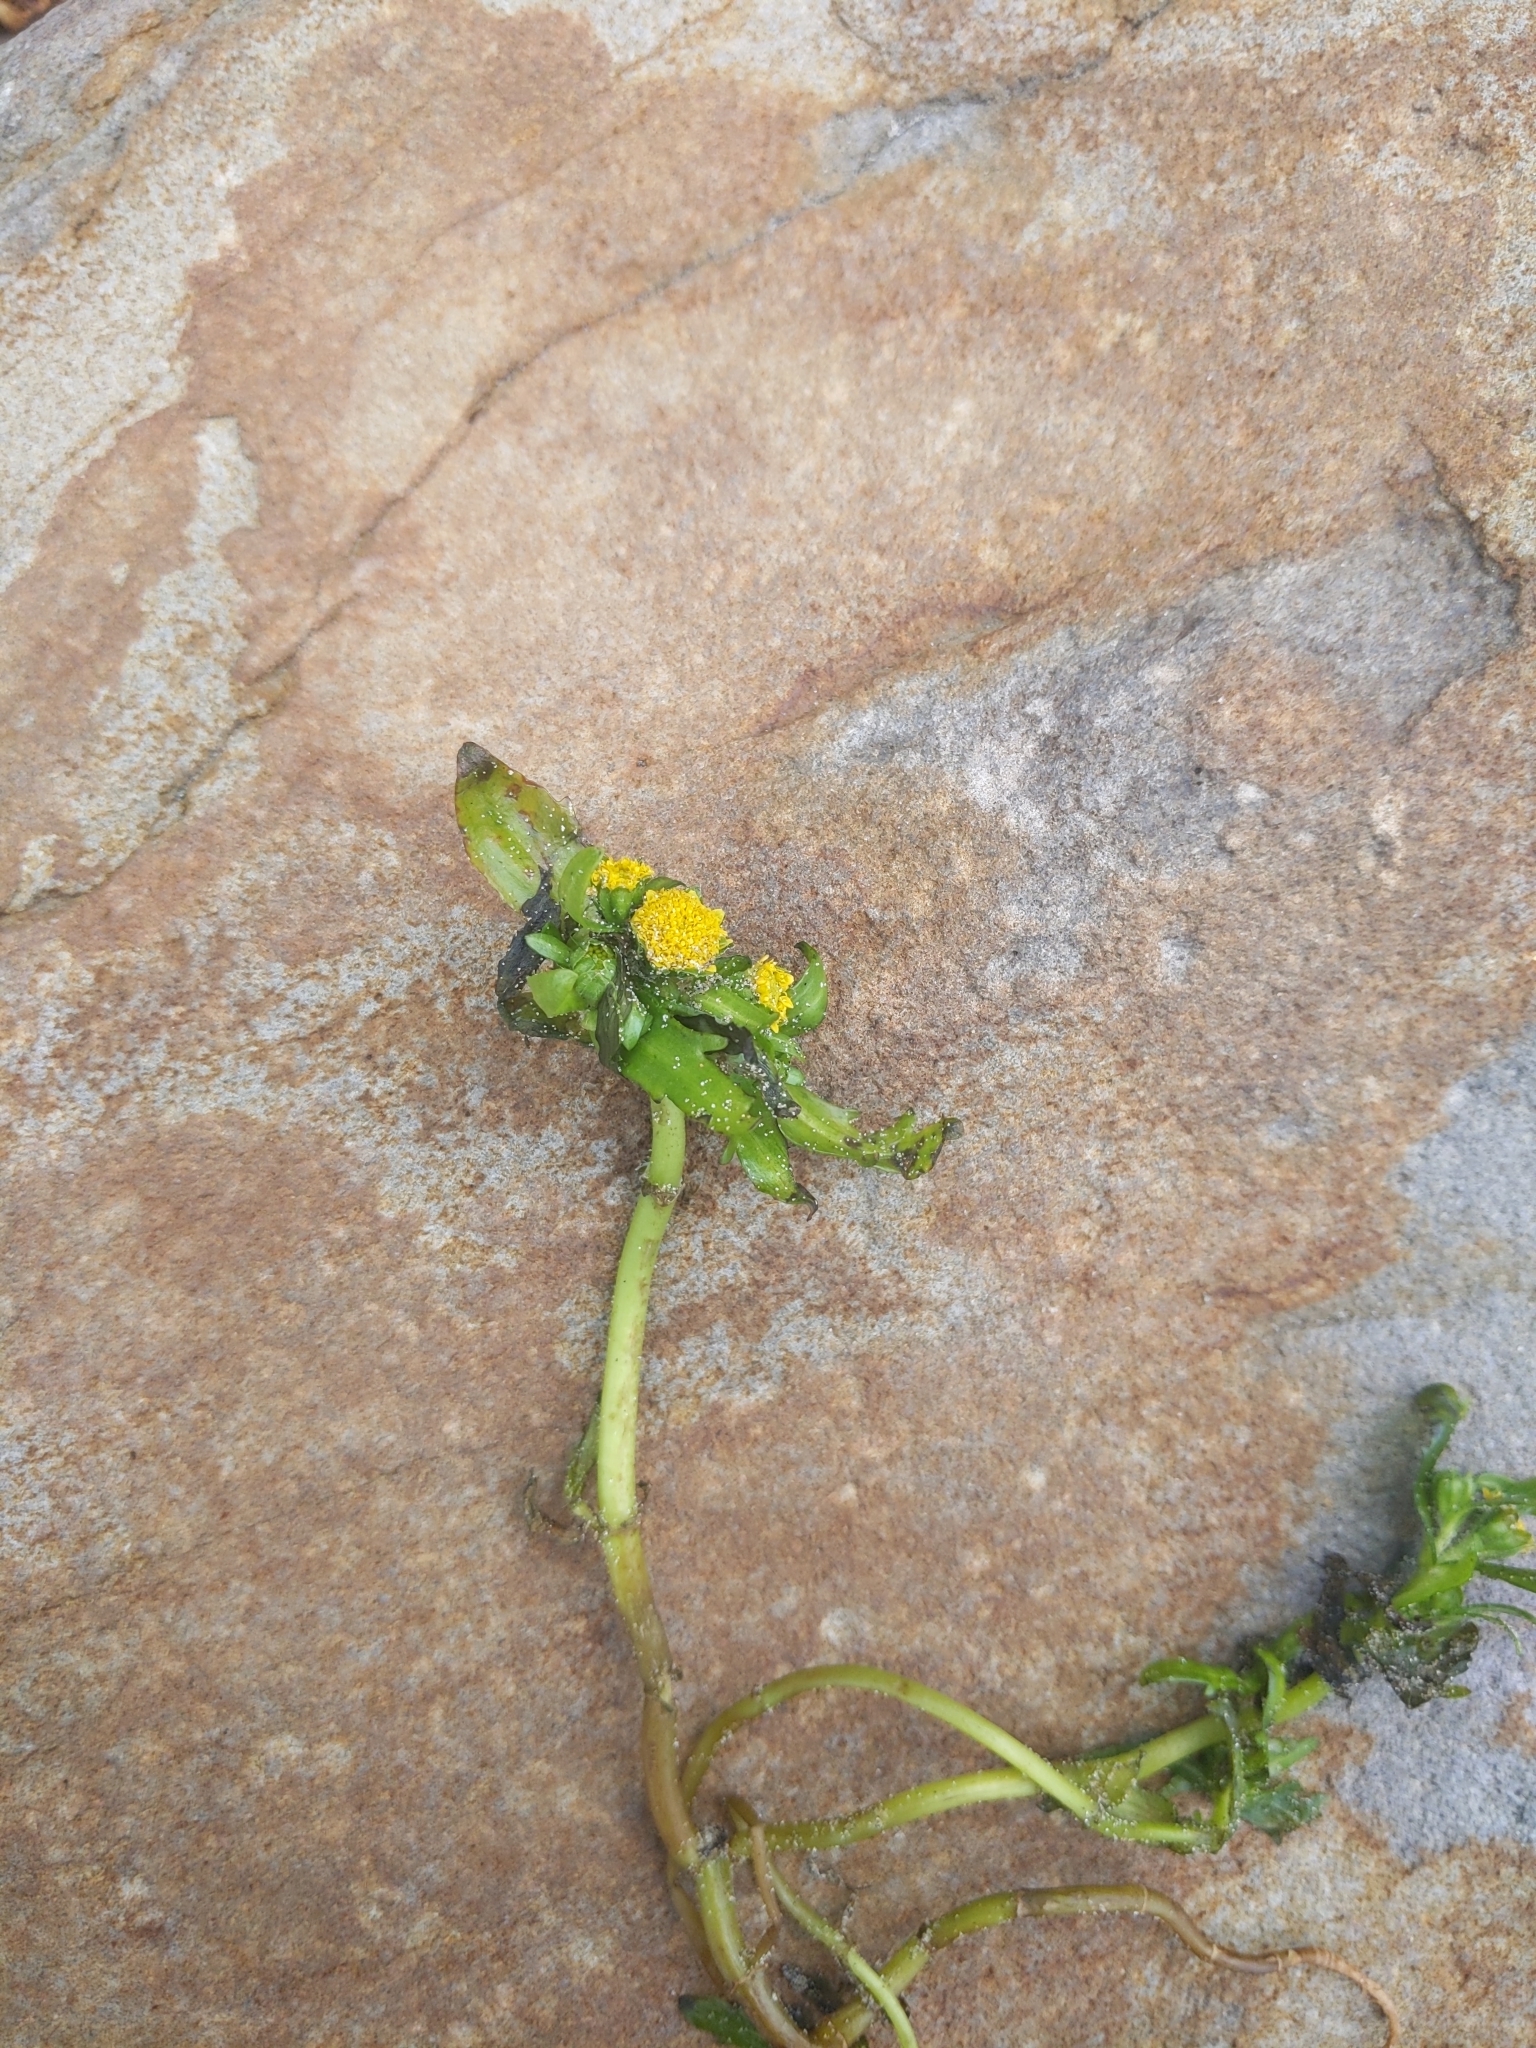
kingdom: Plantae
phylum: Tracheophyta
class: Magnoliopsida
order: Asterales
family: Asteraceae
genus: Lasthenia
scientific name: Lasthenia maritima
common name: Hairy goldfields
